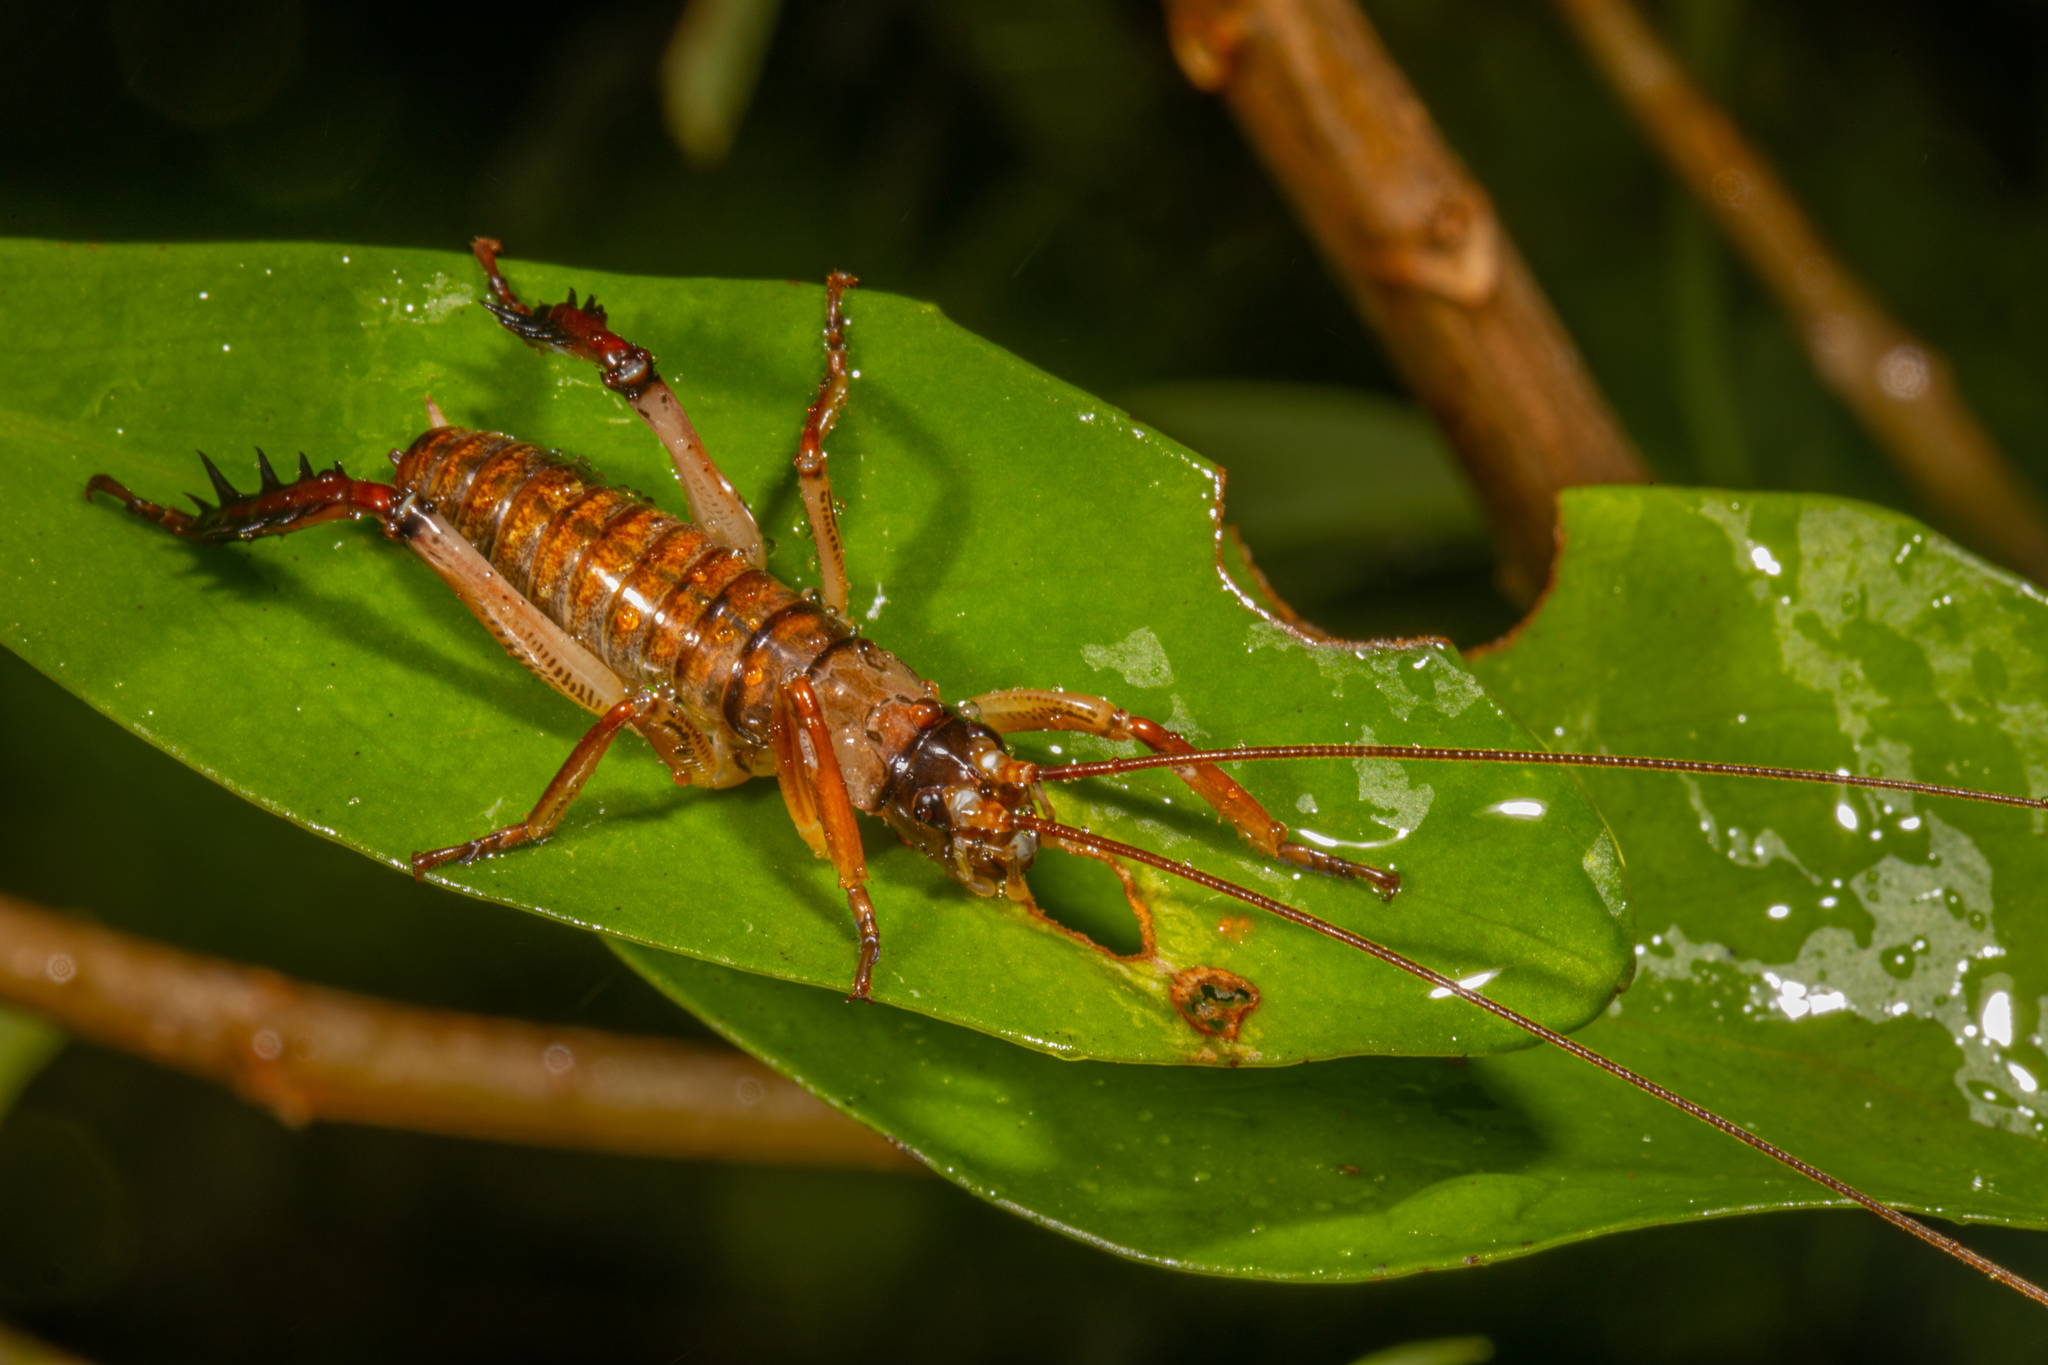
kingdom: Animalia
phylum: Arthropoda
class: Insecta
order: Orthoptera
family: Anostostomatidae
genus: Hemideina
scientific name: Hemideina thoracica
